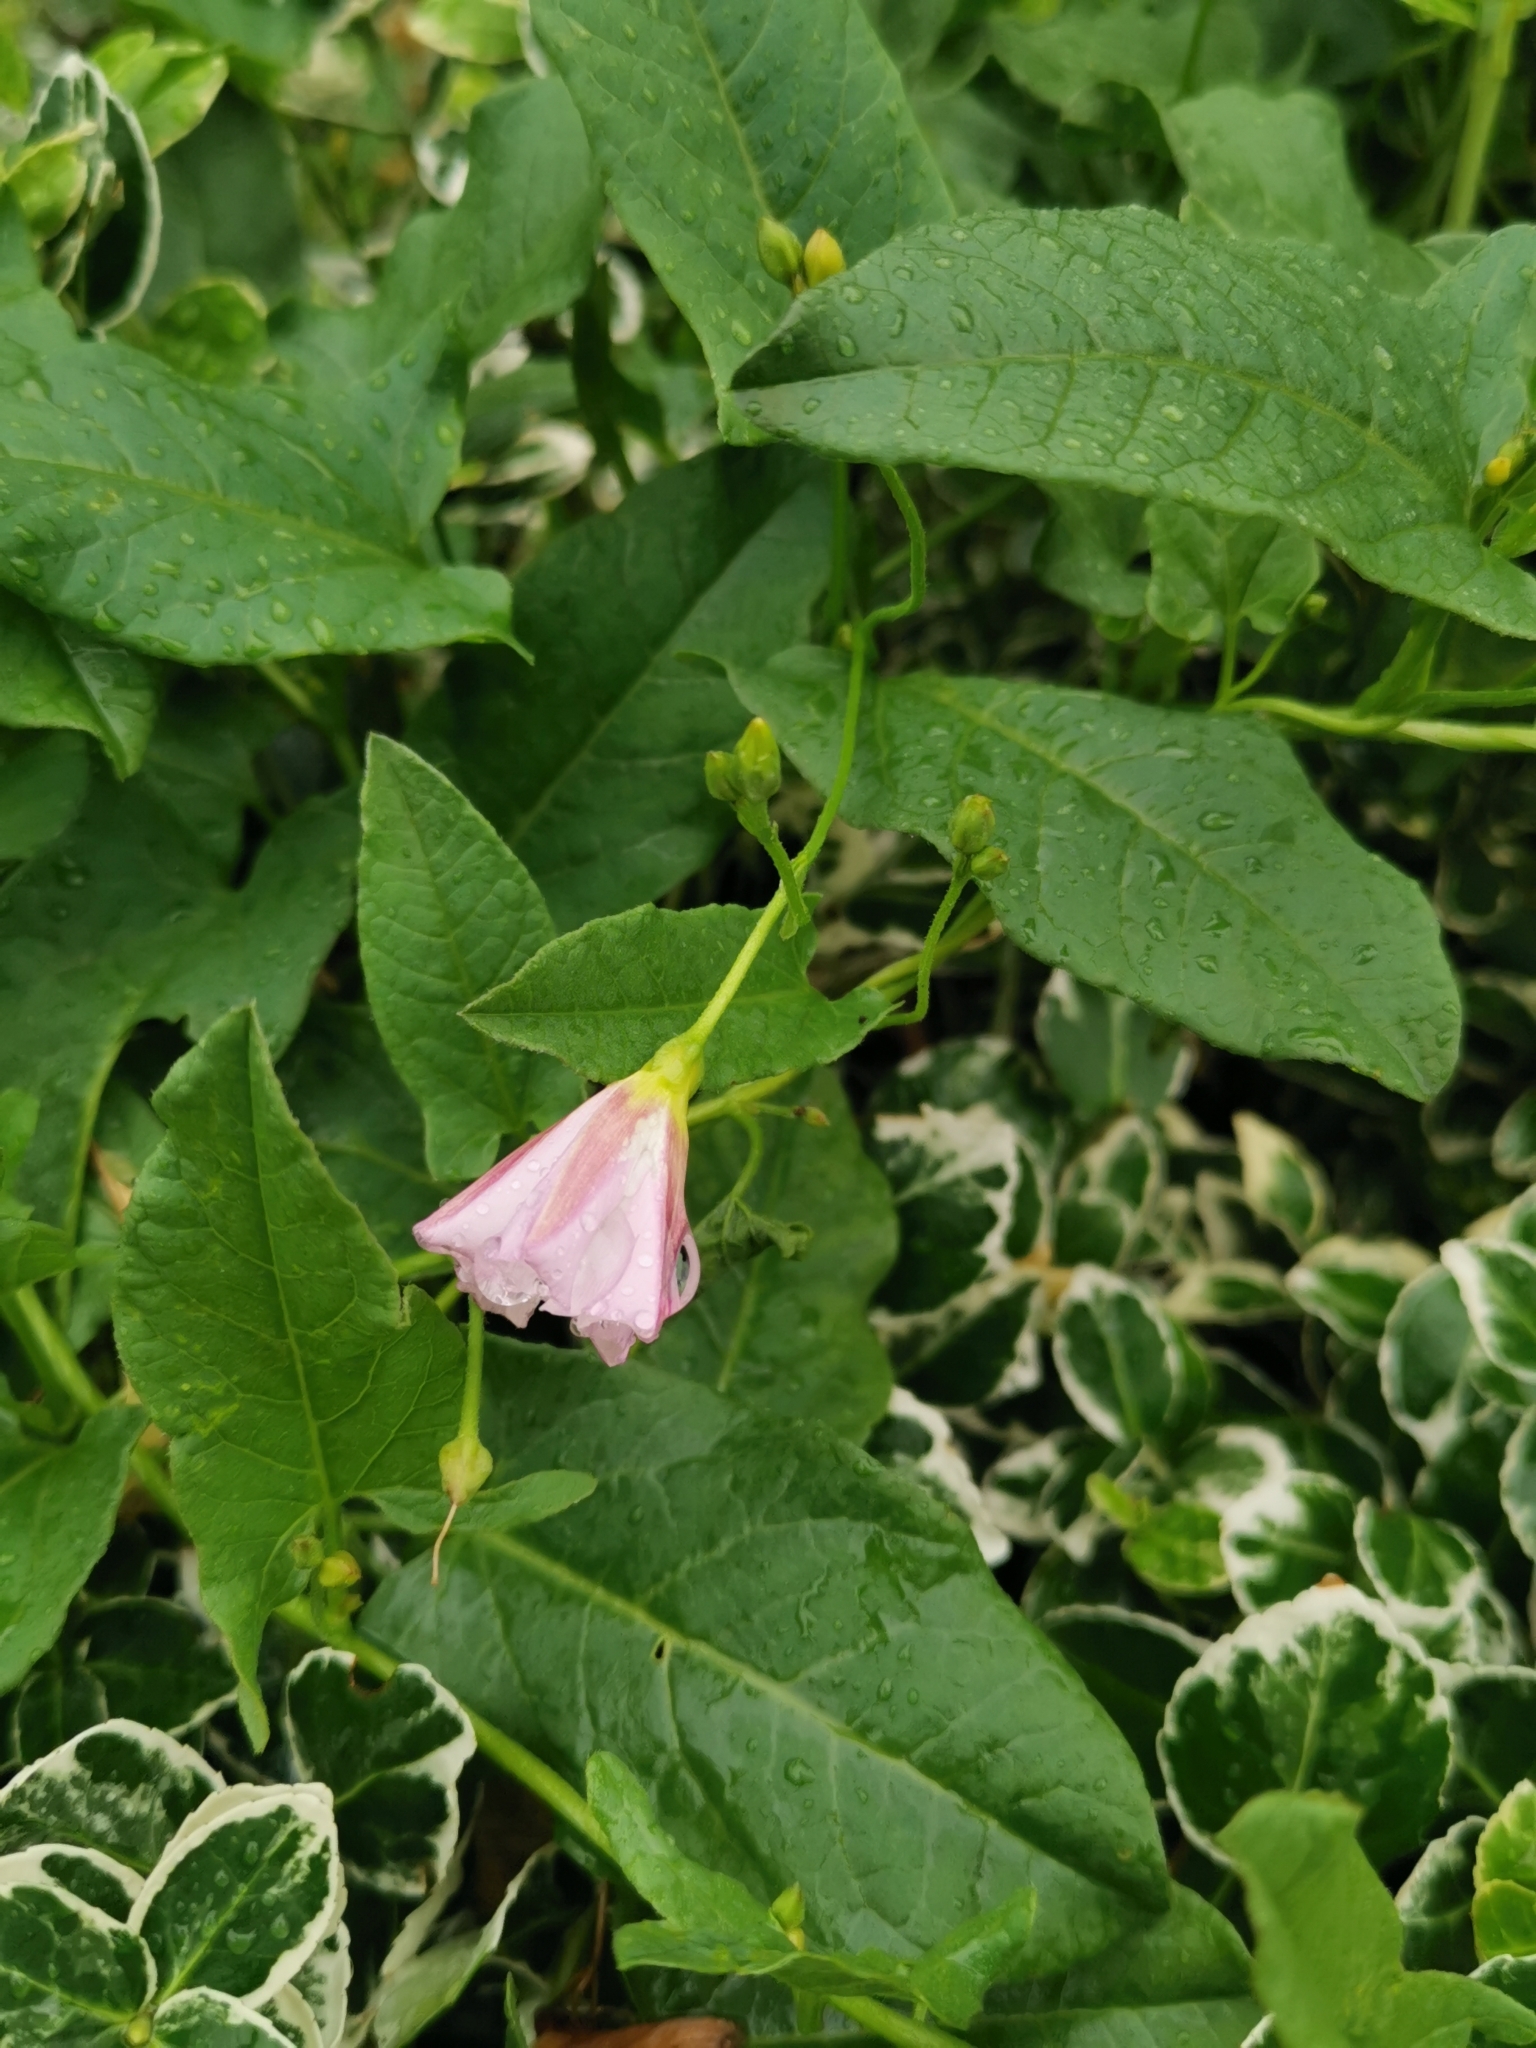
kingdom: Plantae
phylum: Tracheophyta
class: Magnoliopsida
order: Solanales
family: Convolvulaceae
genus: Convolvulus
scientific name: Convolvulus arvensis
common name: Field bindweed
